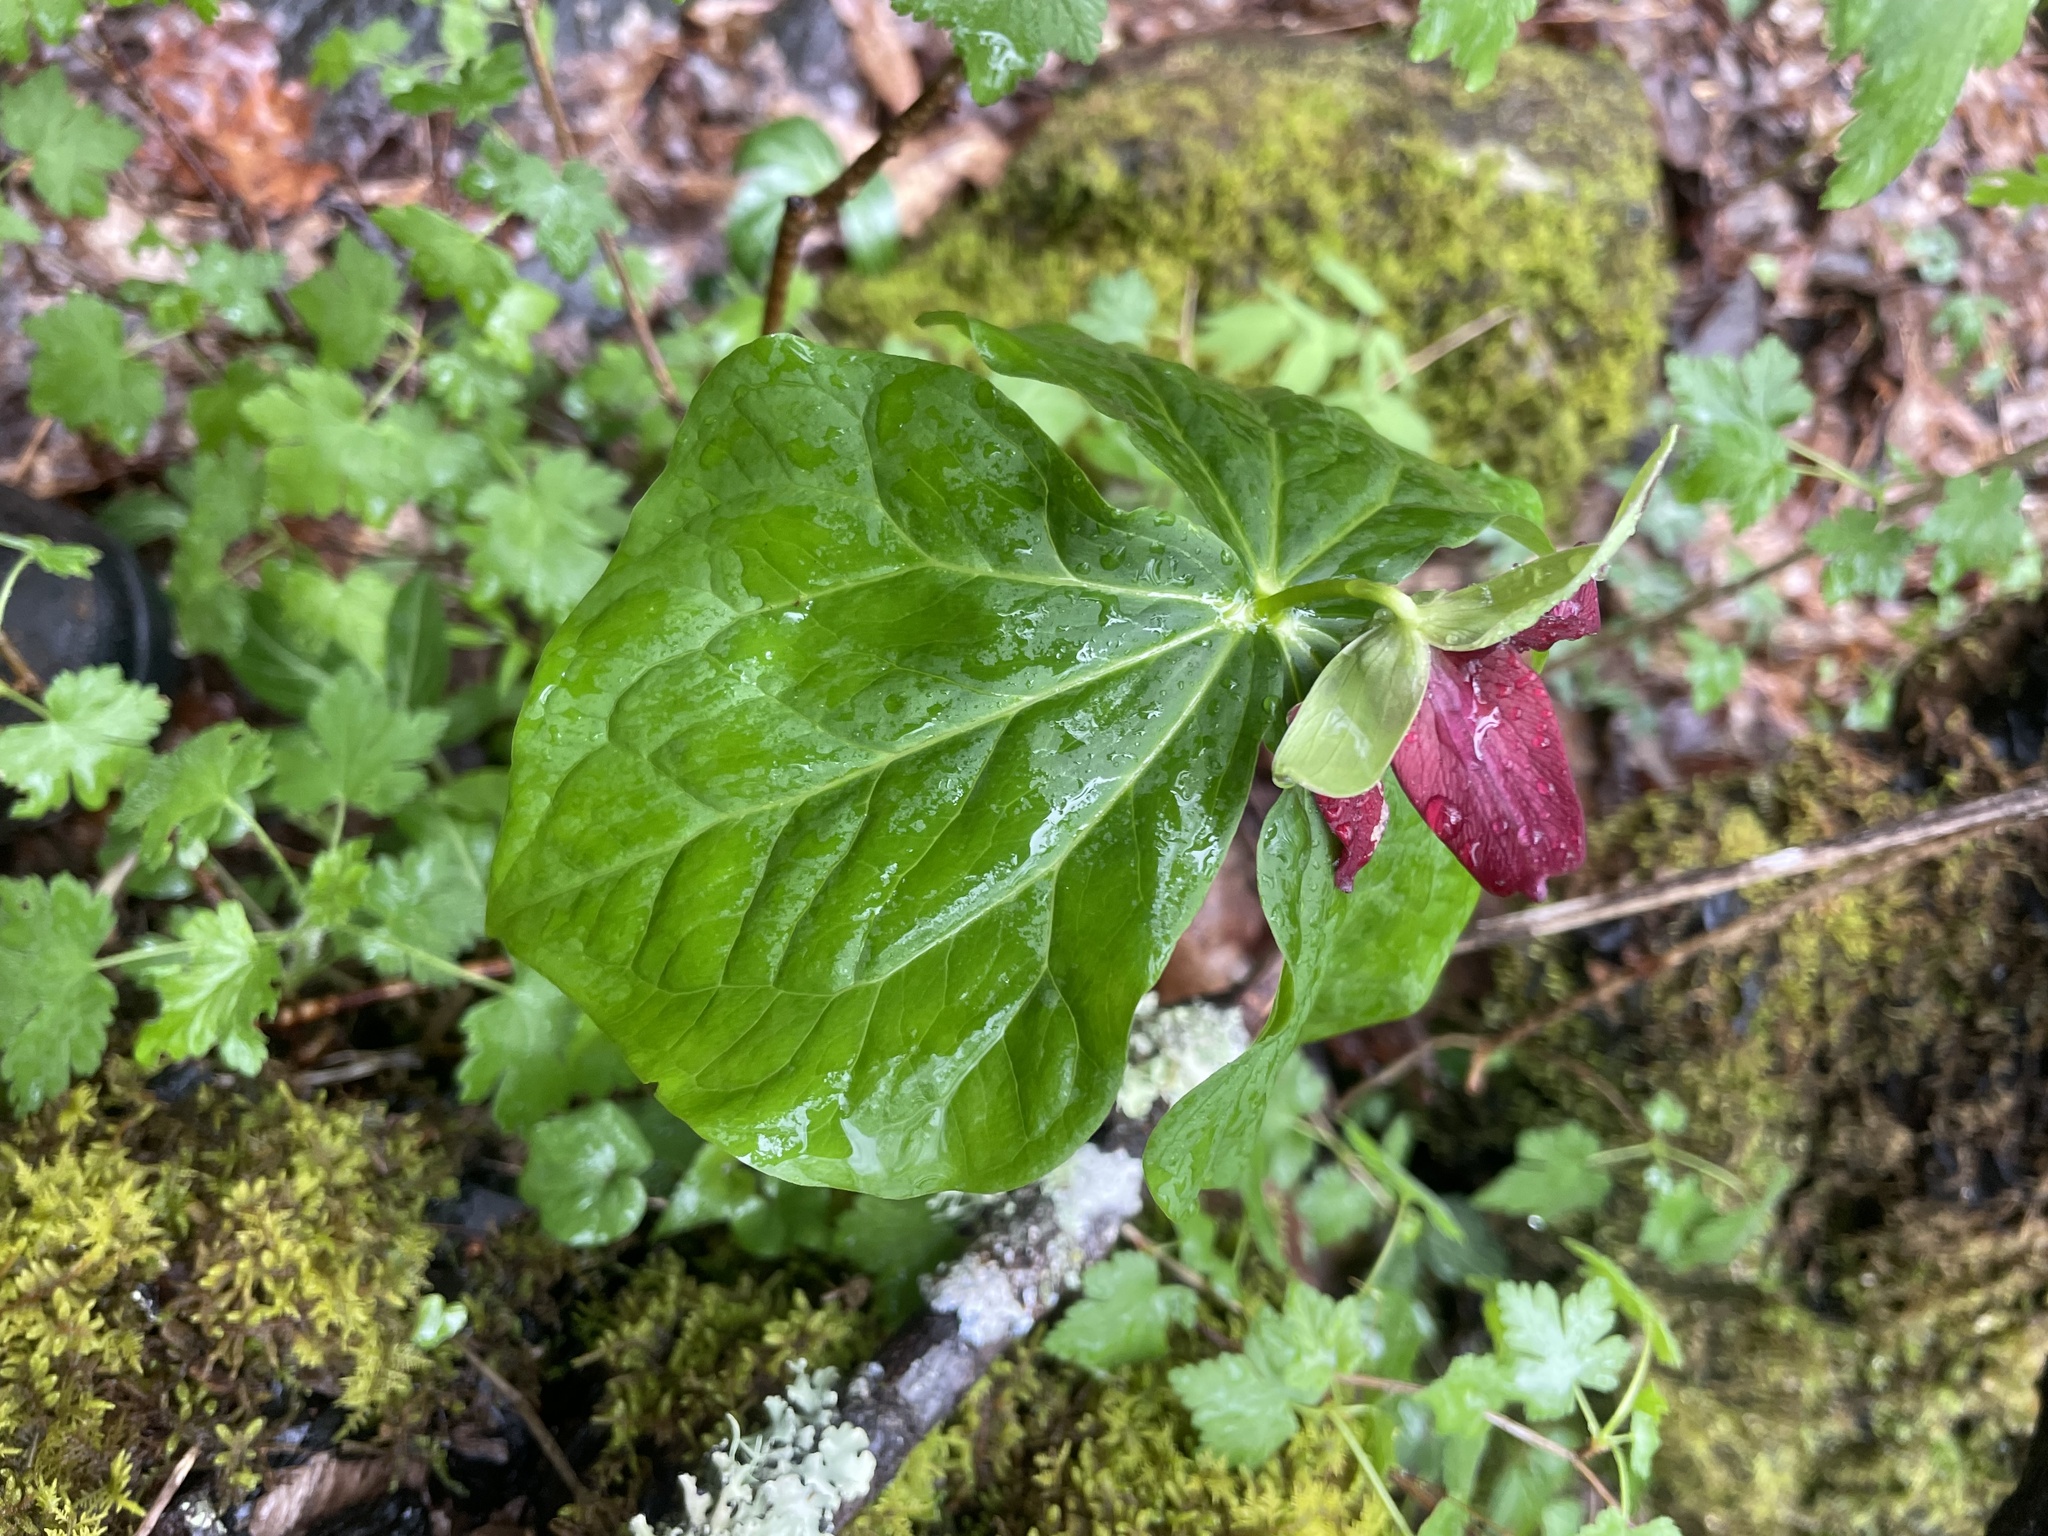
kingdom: Plantae
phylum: Tracheophyta
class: Liliopsida
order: Liliales
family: Melanthiaceae
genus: Trillium
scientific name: Trillium erectum
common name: Purple trillium
